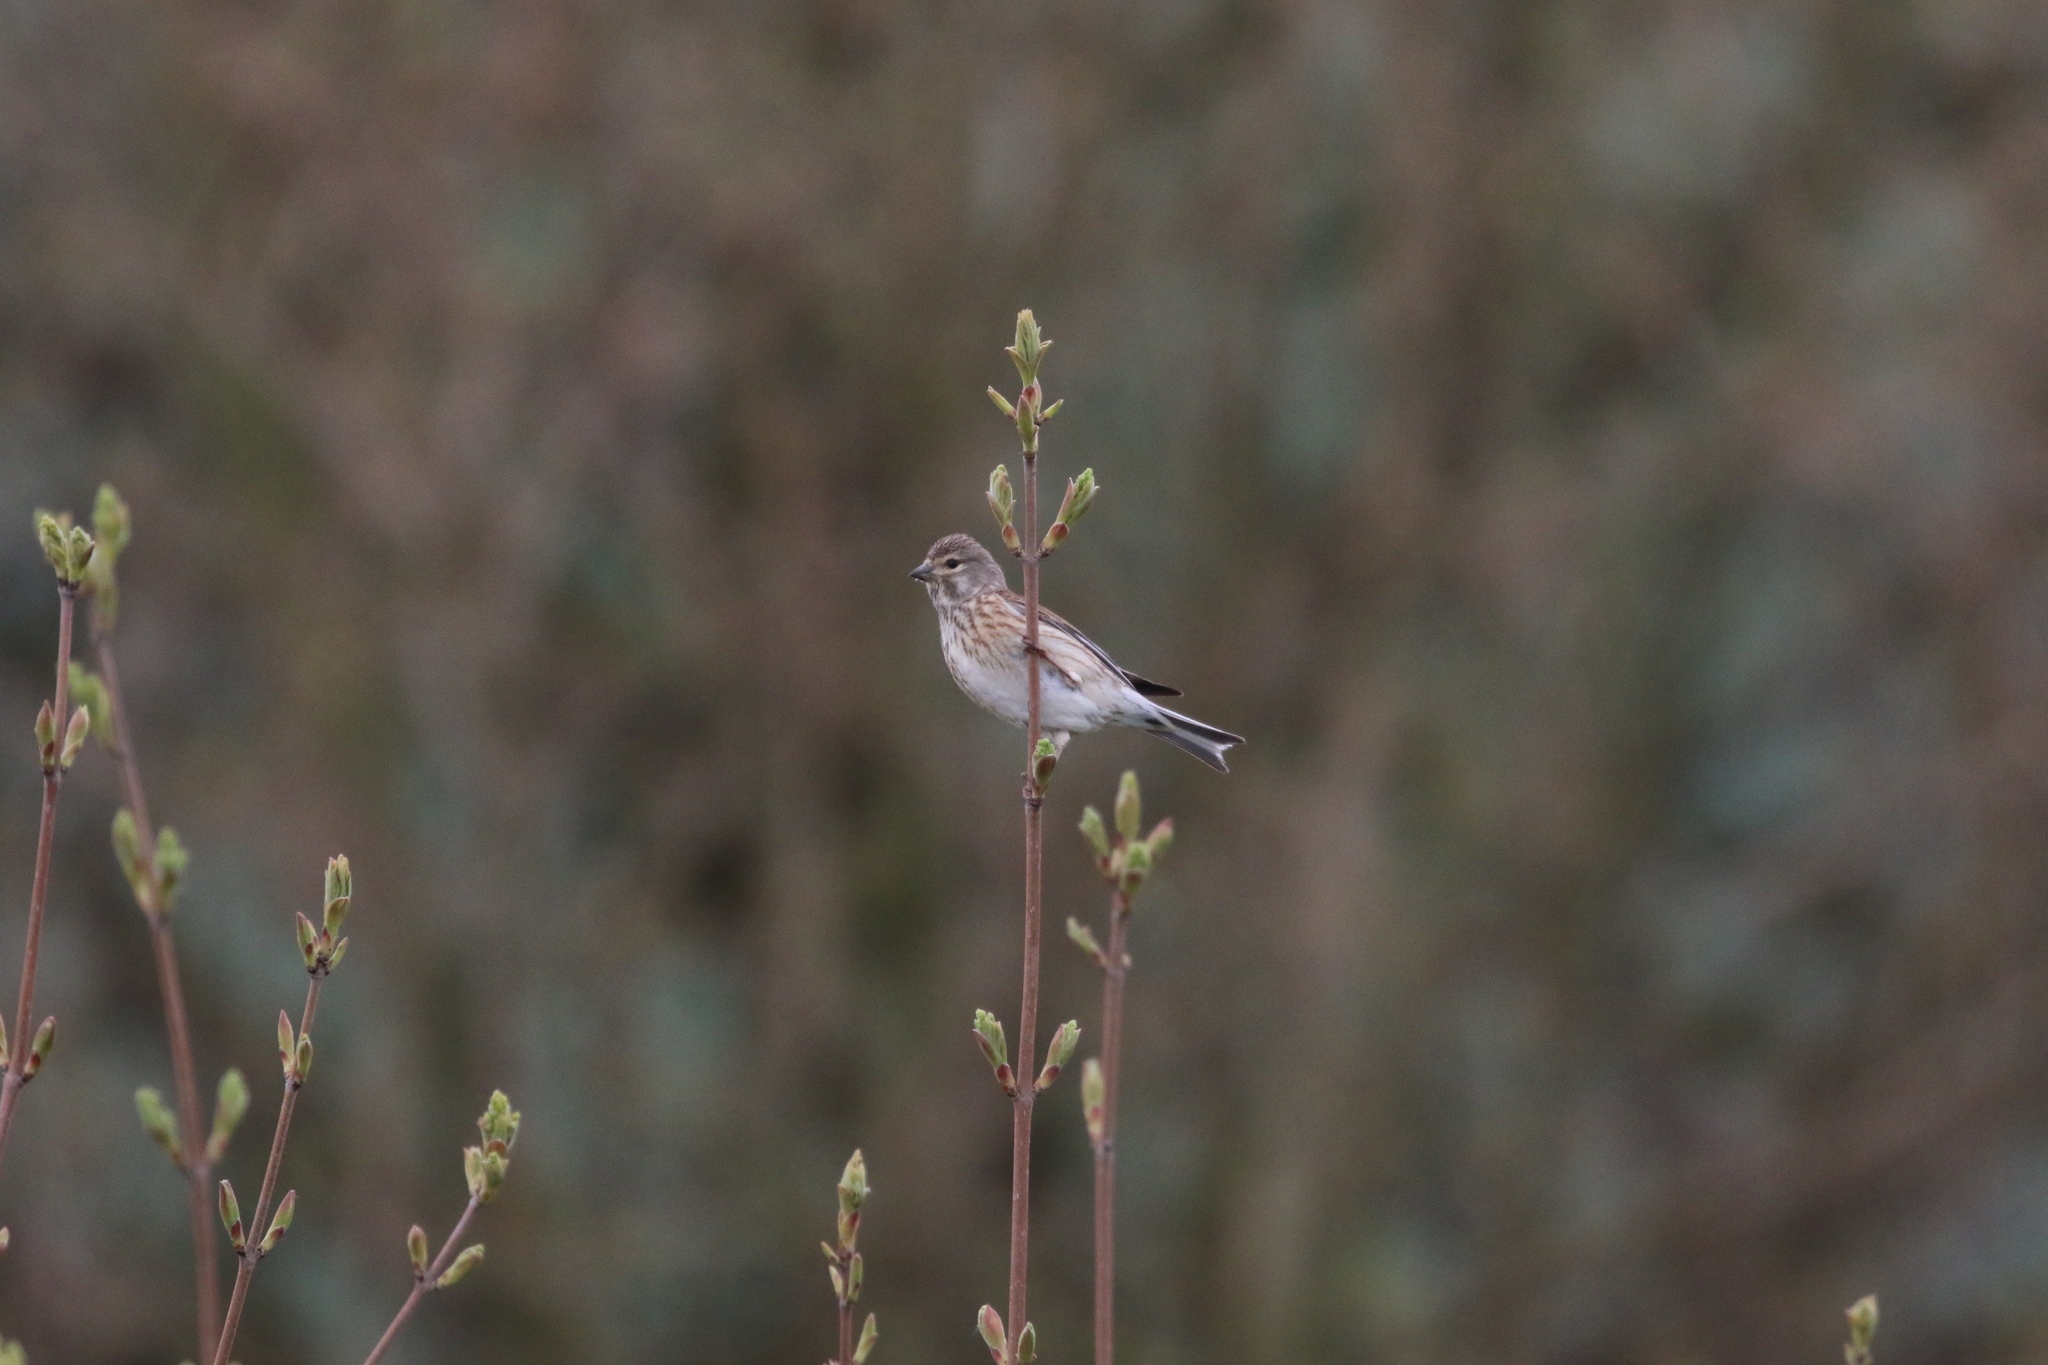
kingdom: Animalia
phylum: Chordata
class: Aves
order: Passeriformes
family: Fringillidae
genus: Linaria
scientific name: Linaria cannabina
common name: Common linnet
